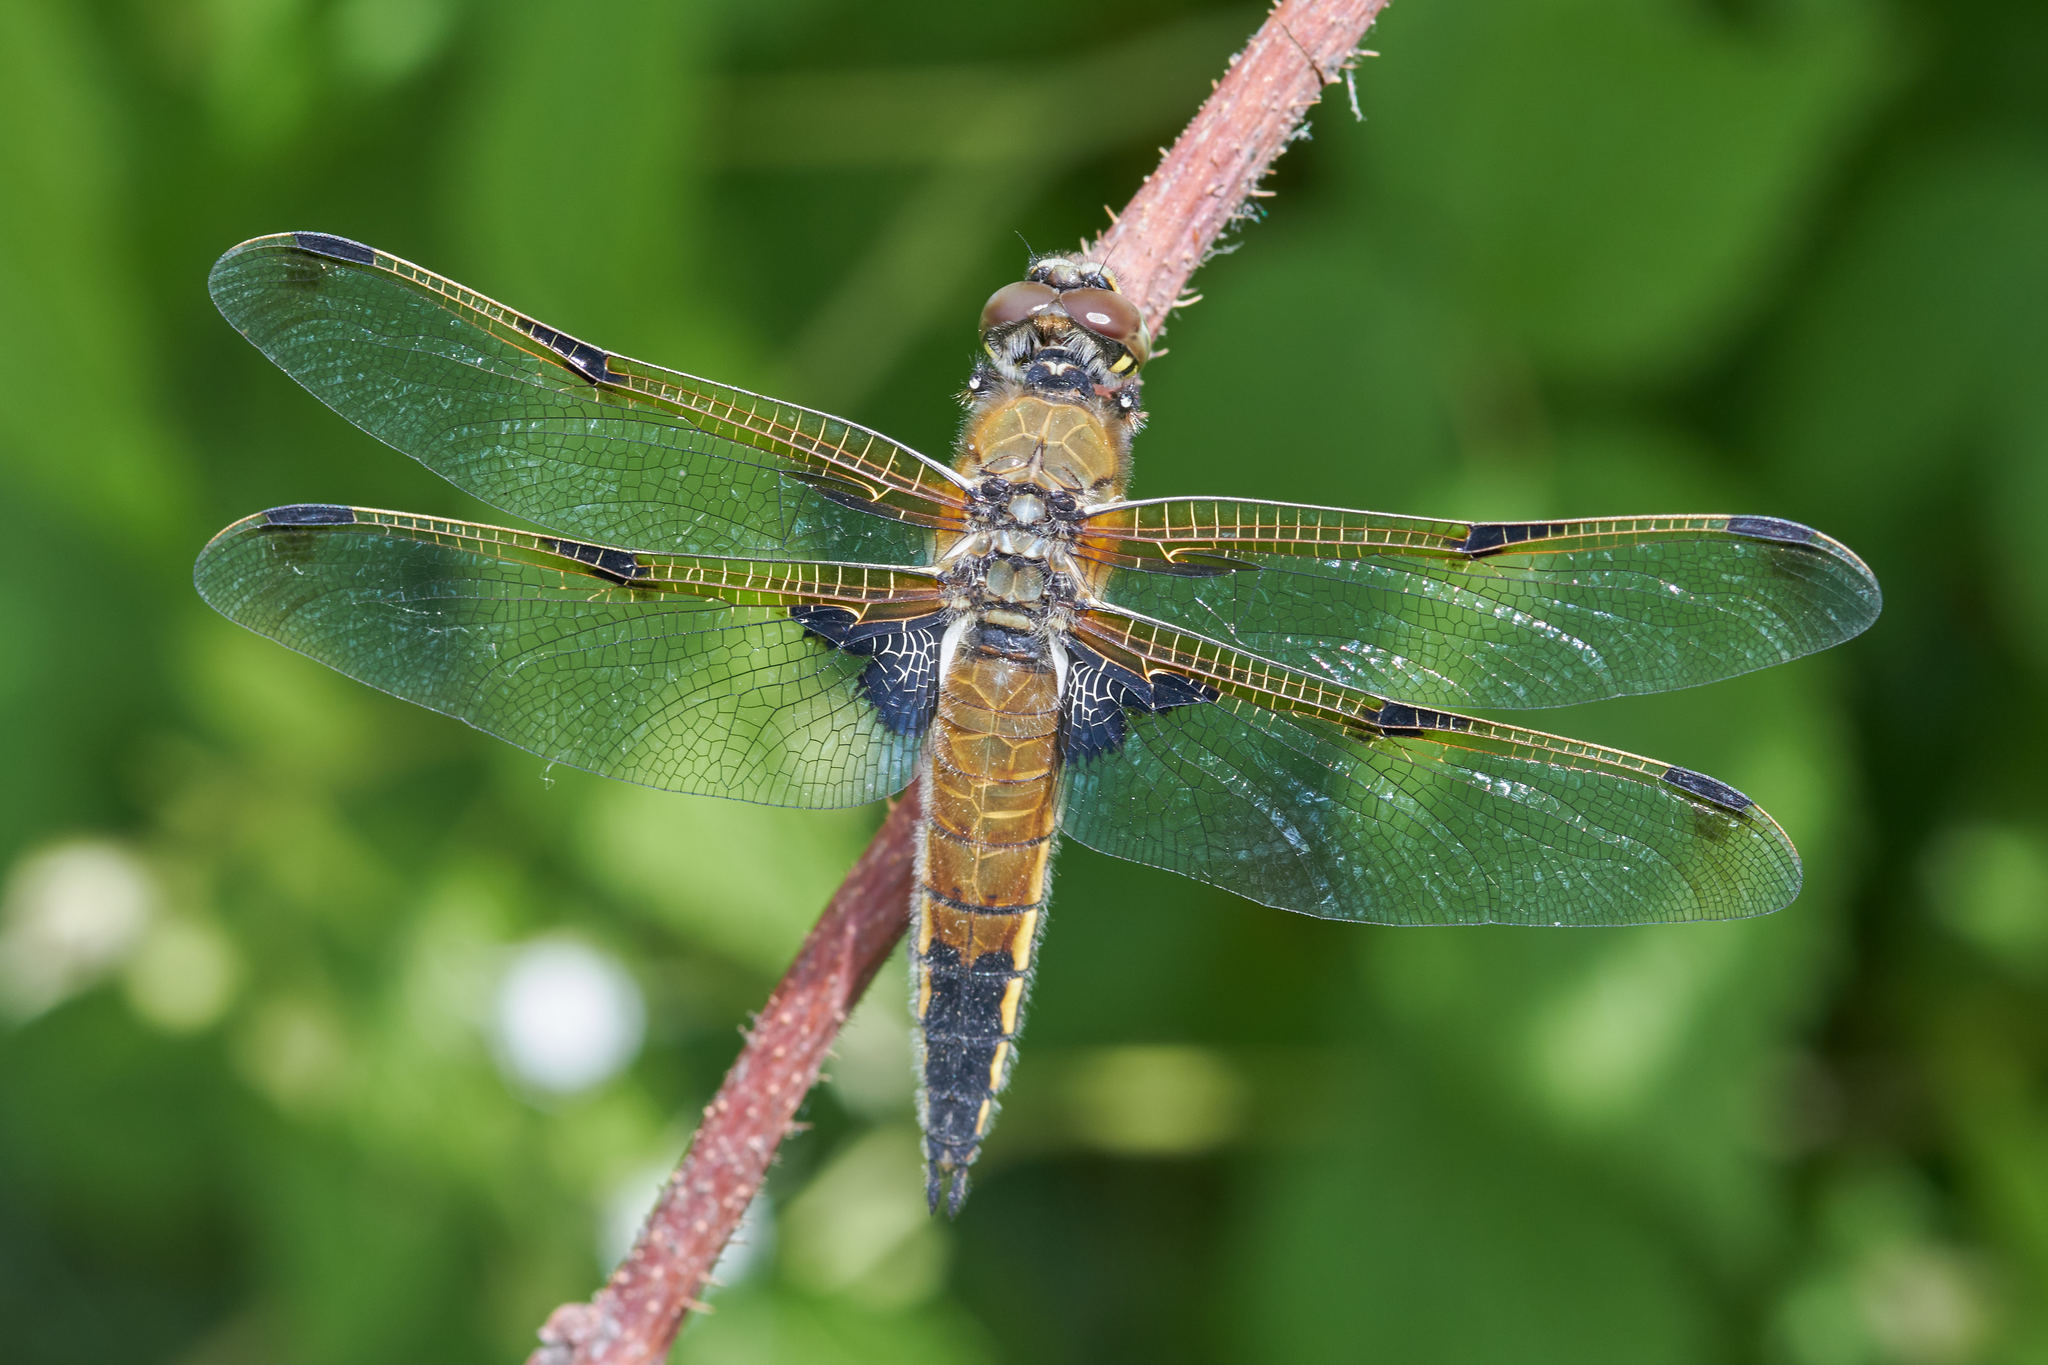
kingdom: Animalia
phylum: Arthropoda
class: Insecta
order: Odonata
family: Libellulidae
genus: Libellula
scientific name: Libellula quadrimaculata
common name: Four-spotted chaser
